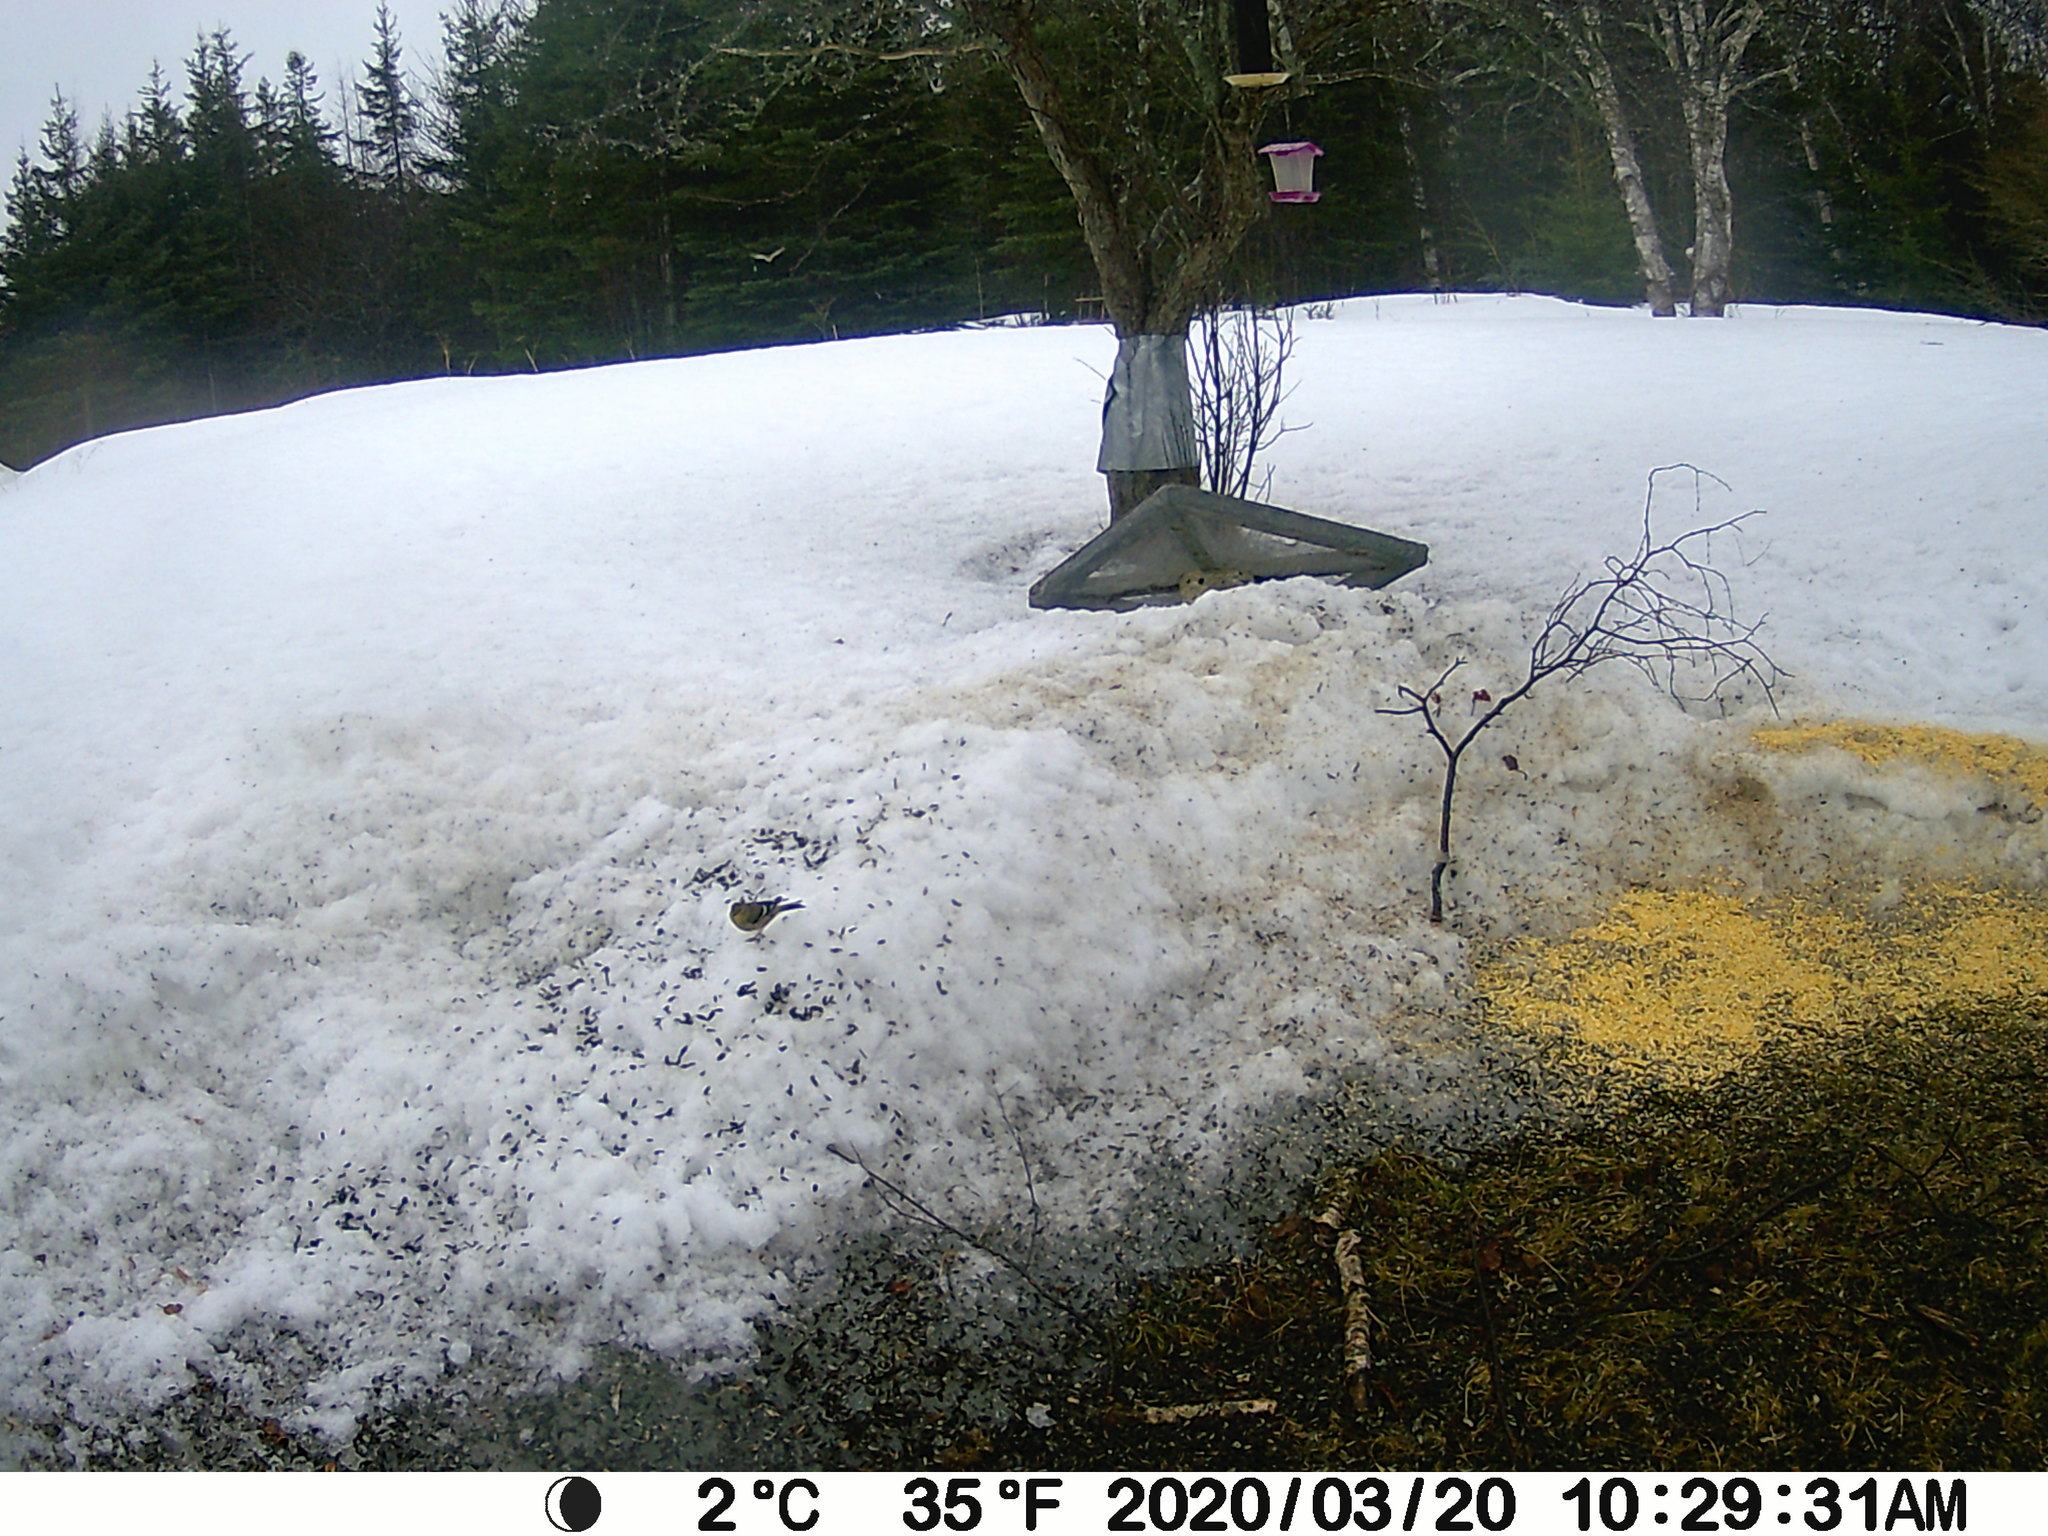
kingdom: Animalia
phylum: Chordata
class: Aves
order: Passeriformes
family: Fringillidae
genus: Spinus
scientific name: Spinus tristis
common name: American goldfinch
